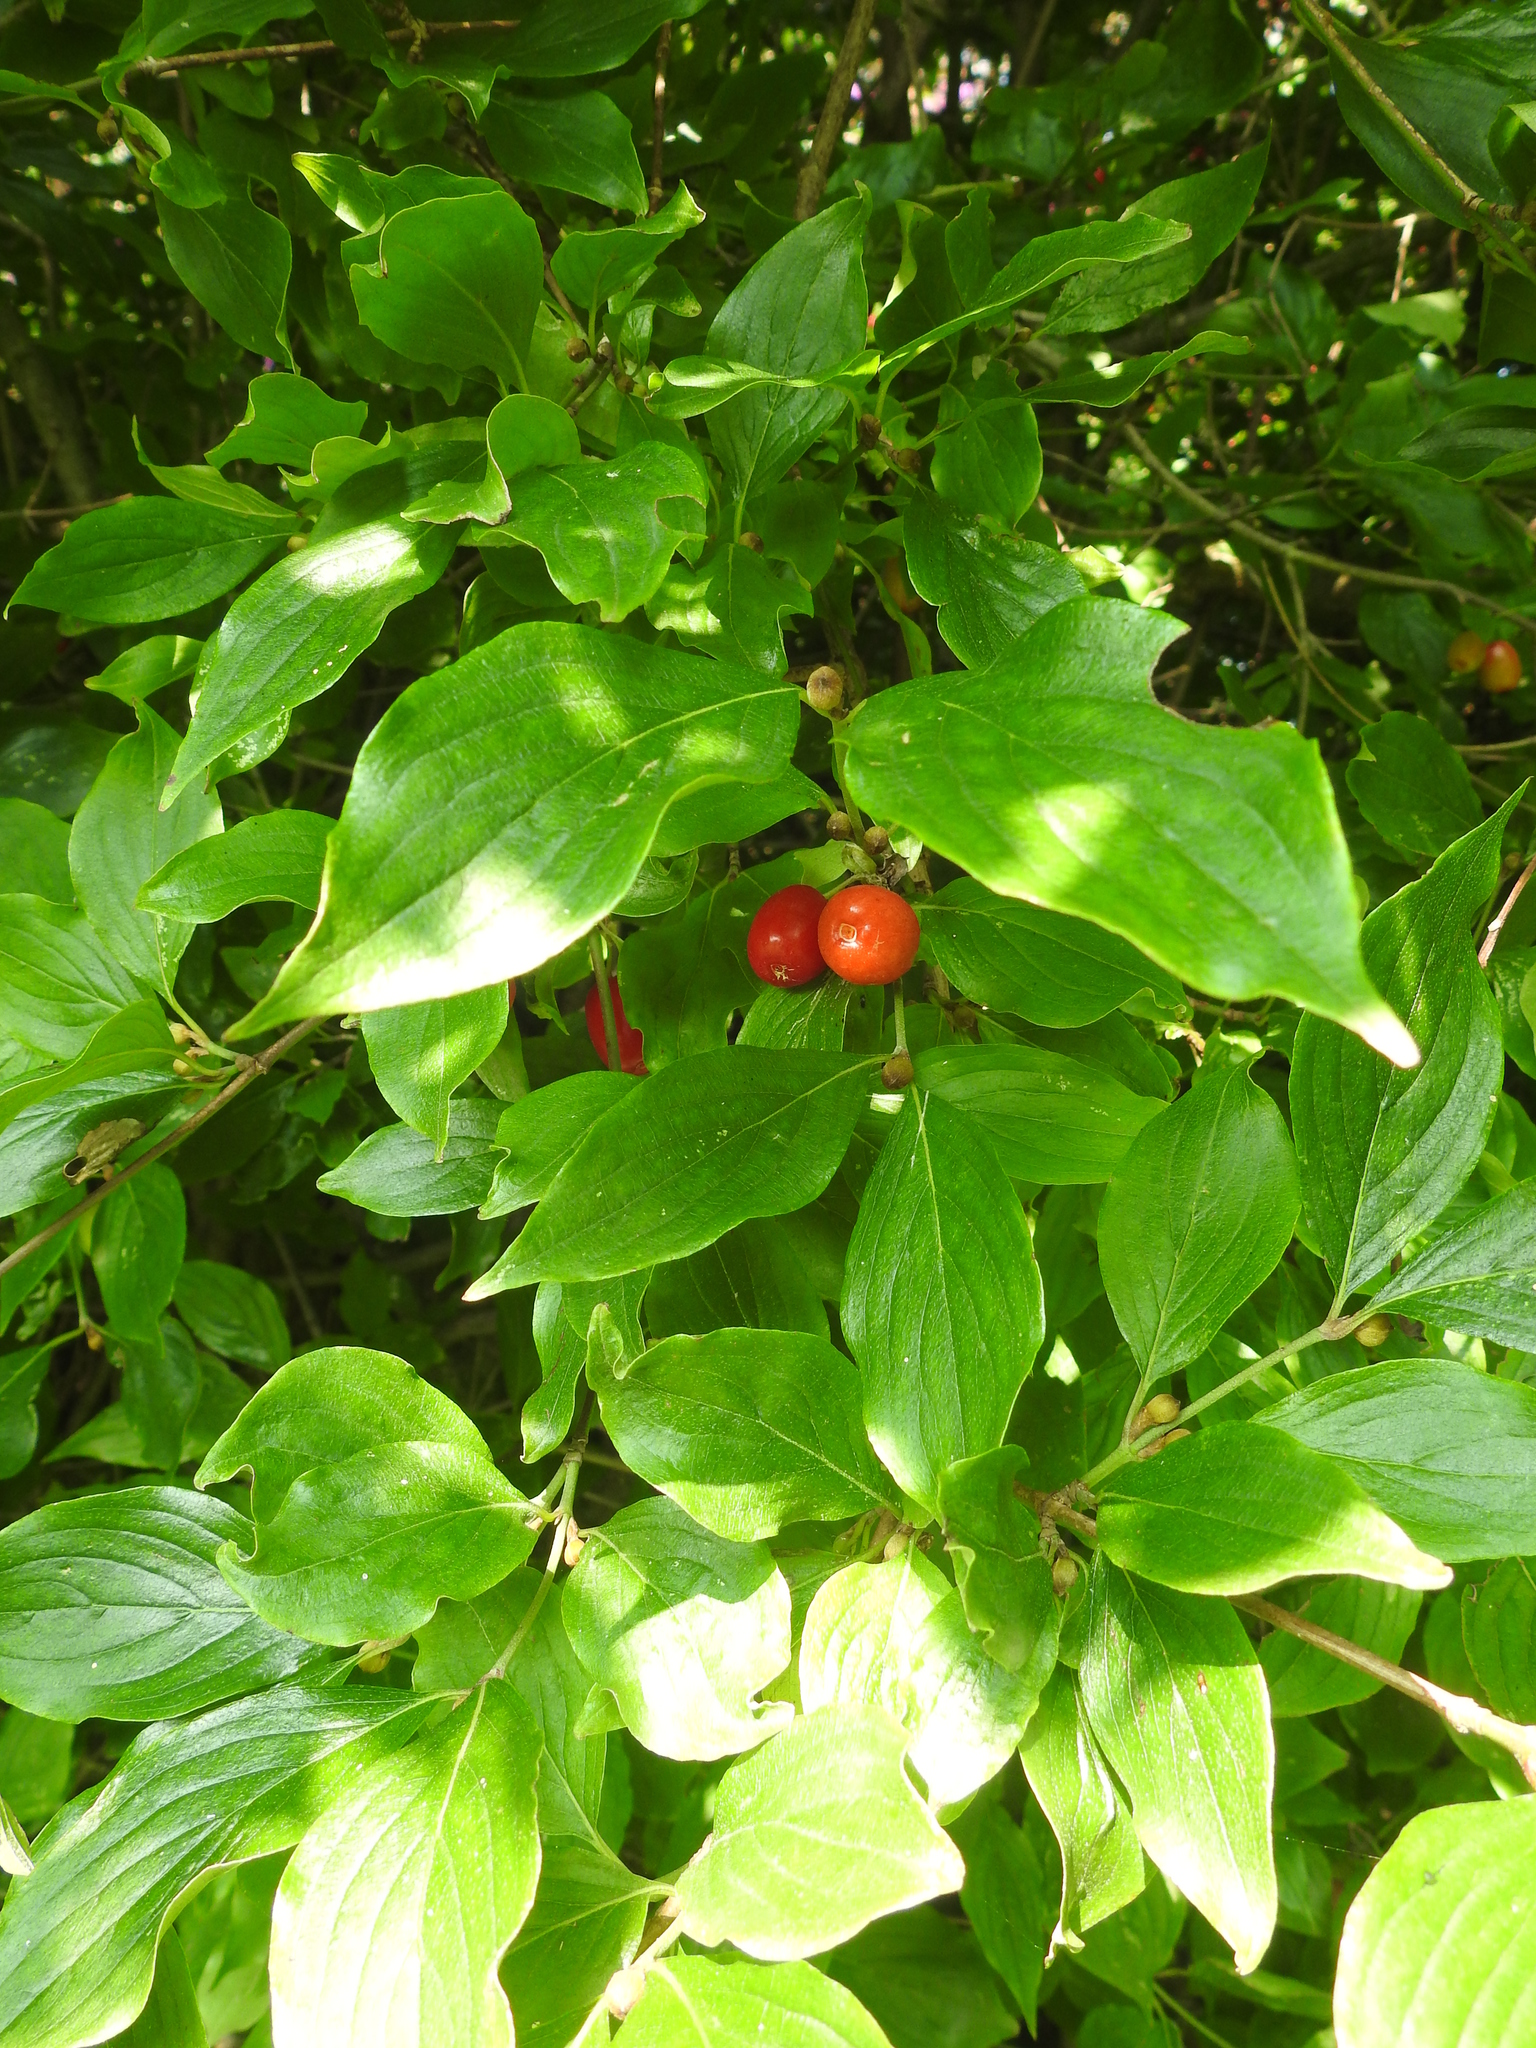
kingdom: Plantae
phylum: Tracheophyta
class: Magnoliopsida
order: Cornales
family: Cornaceae
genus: Cornus
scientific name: Cornus mas
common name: Cornelian-cherry
